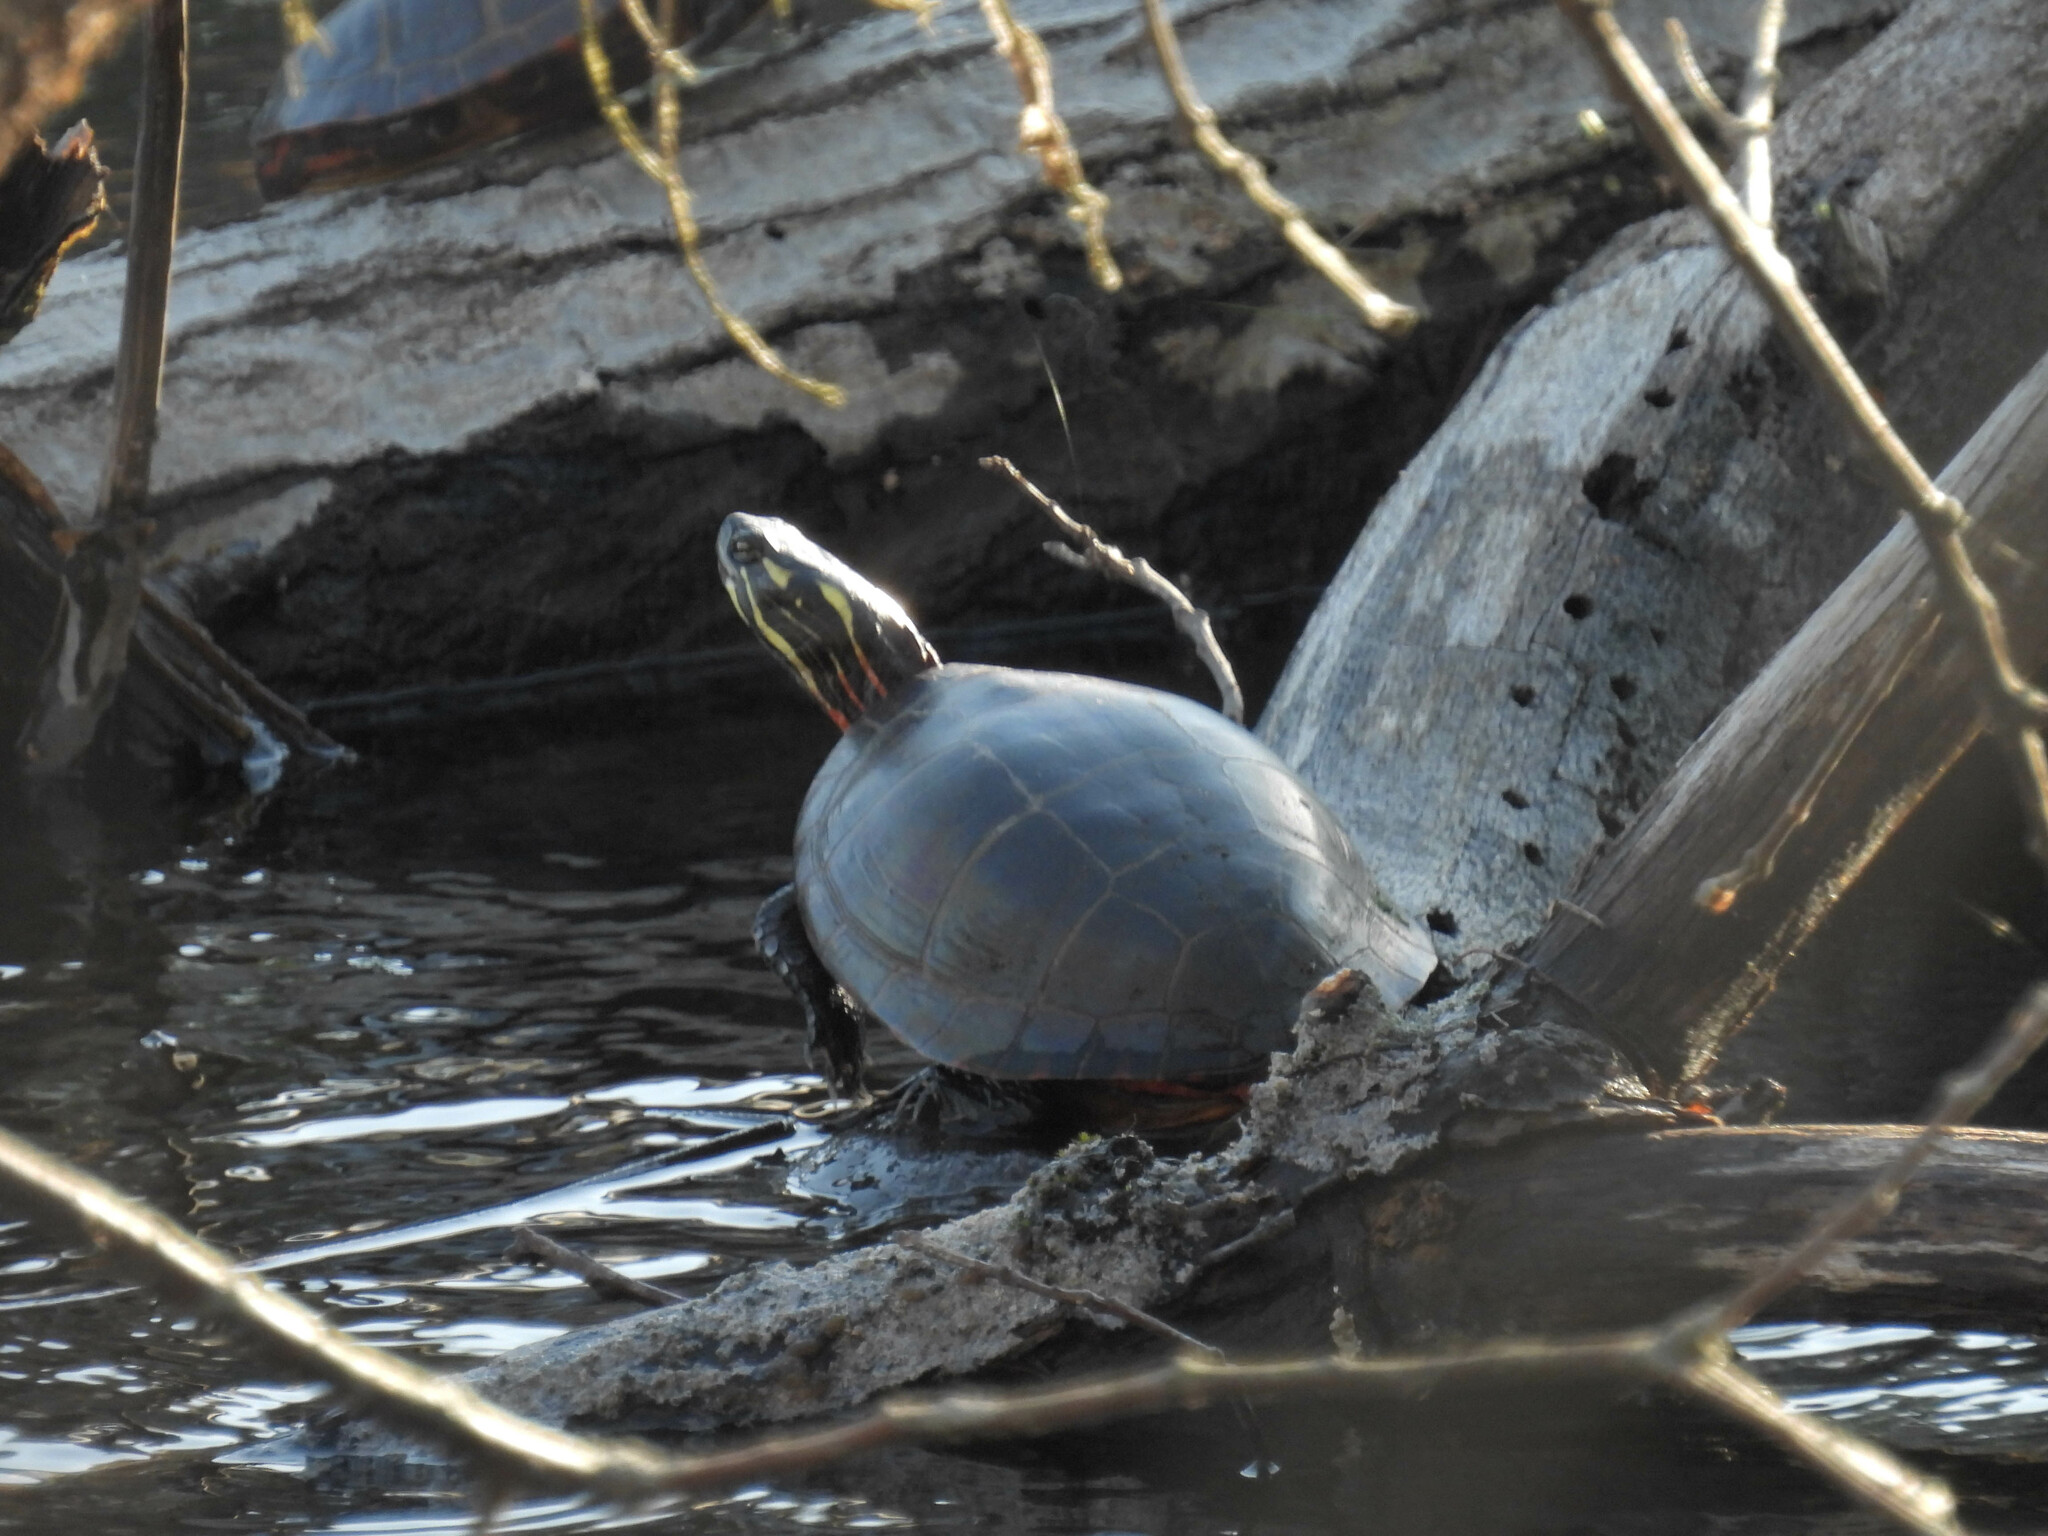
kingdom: Animalia
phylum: Chordata
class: Testudines
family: Emydidae
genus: Chrysemys
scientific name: Chrysemys picta
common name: Painted turtle
